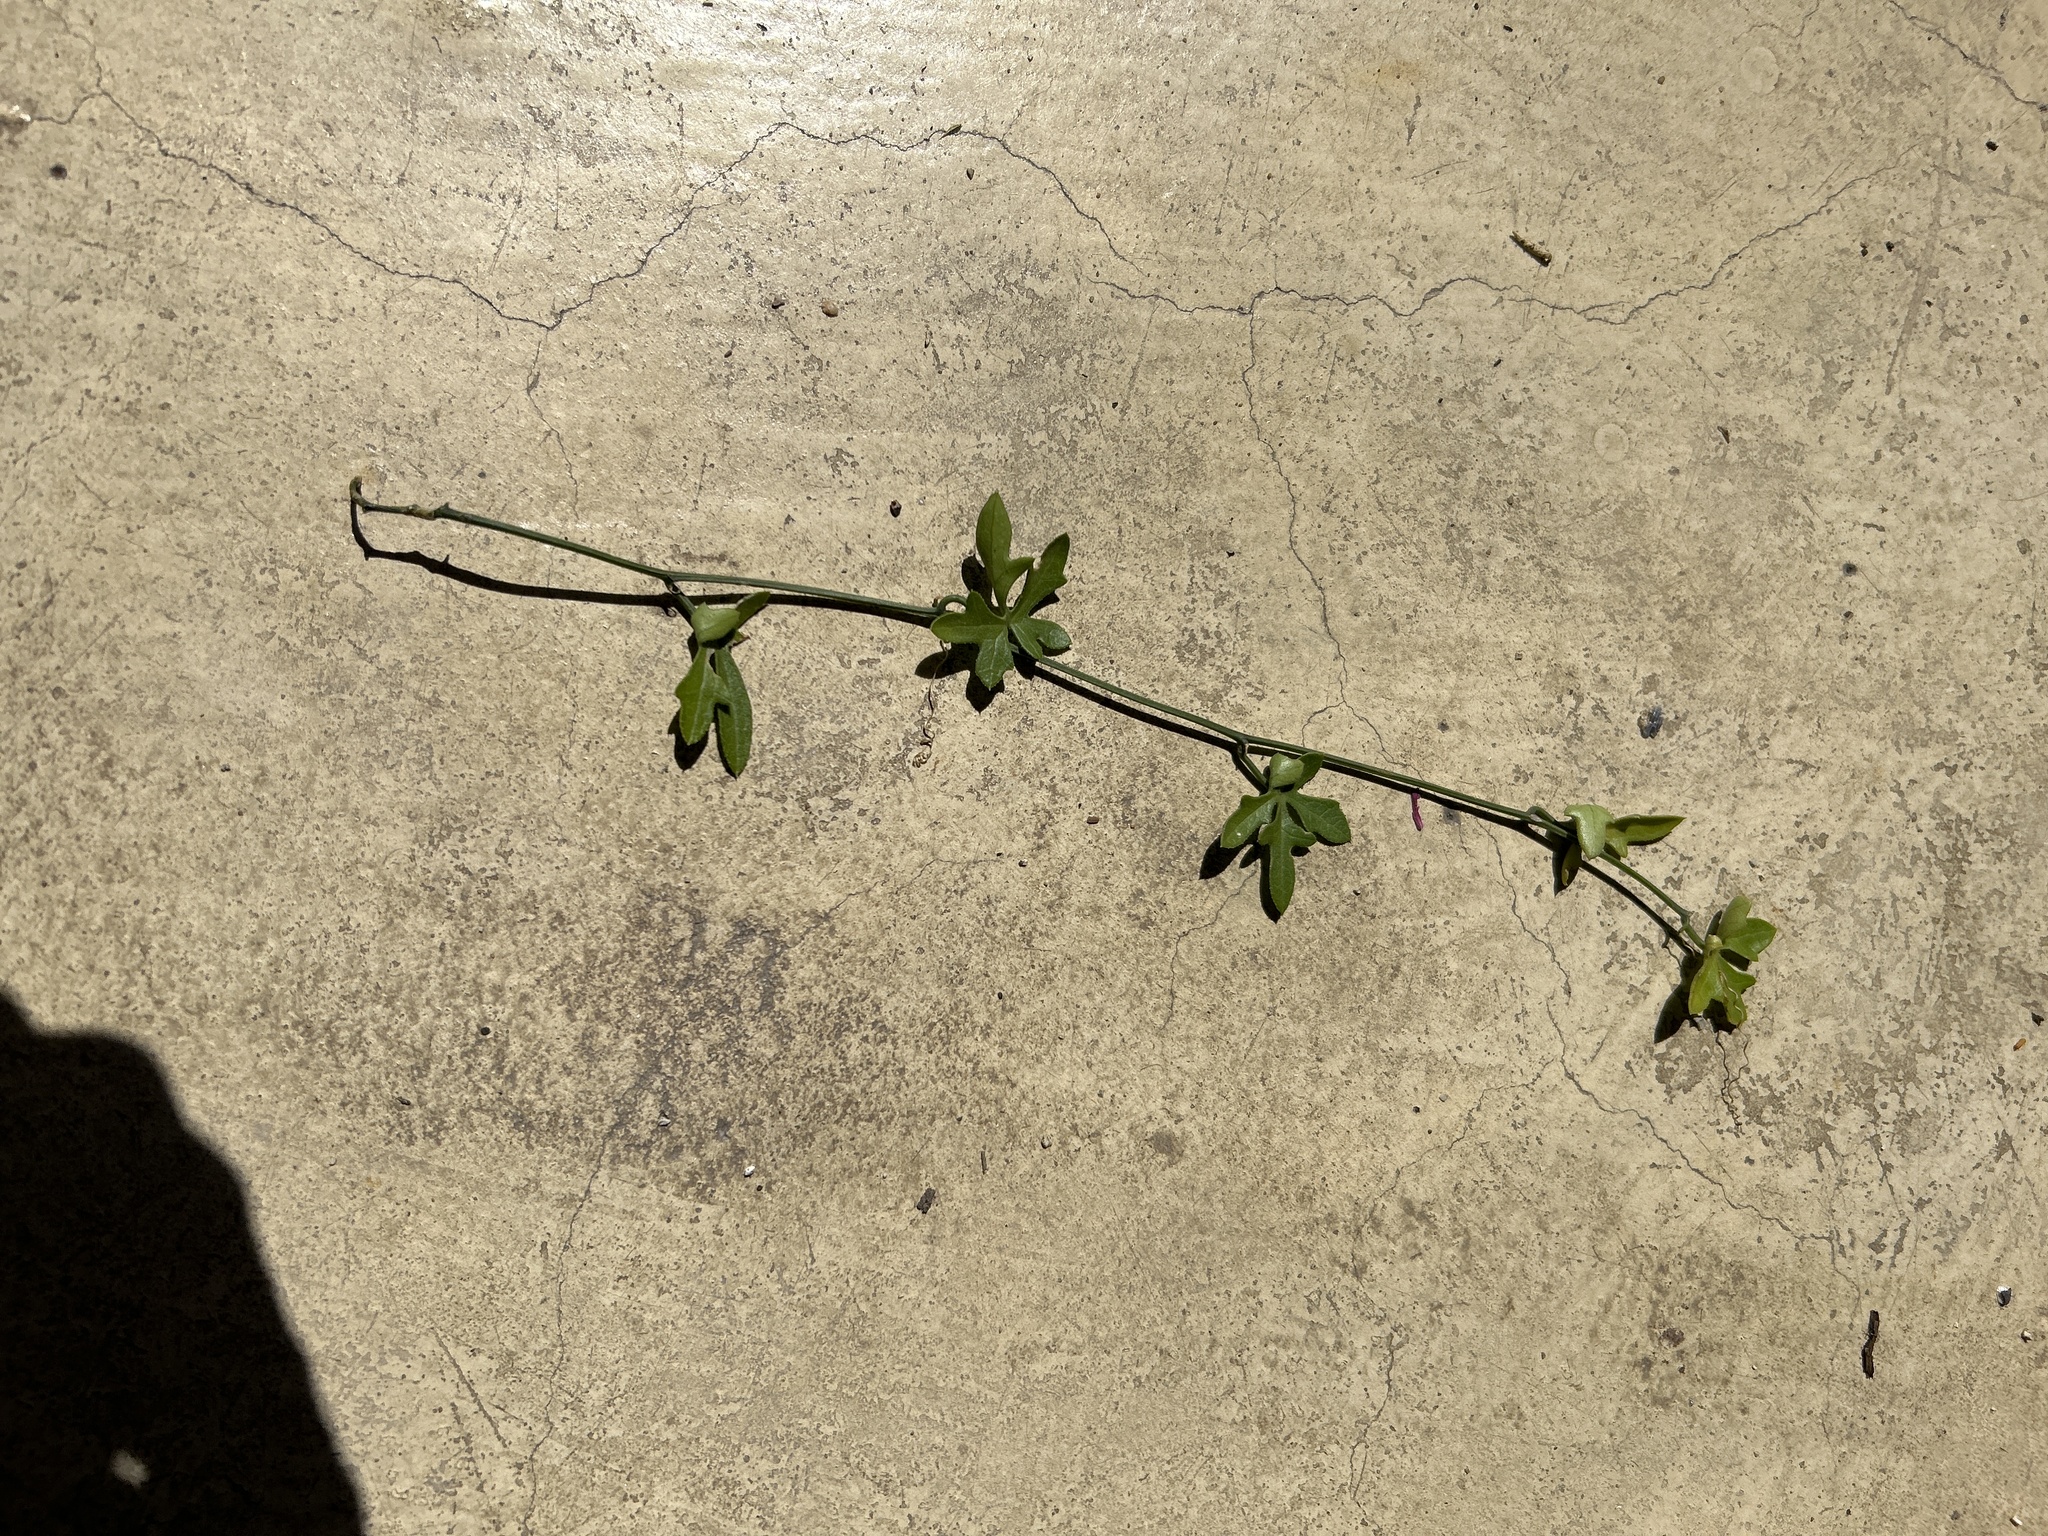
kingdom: Plantae
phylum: Tracheophyta
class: Magnoliopsida
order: Cucurbitales
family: Cucurbitaceae
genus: Kedrostis
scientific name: Kedrostis nana
